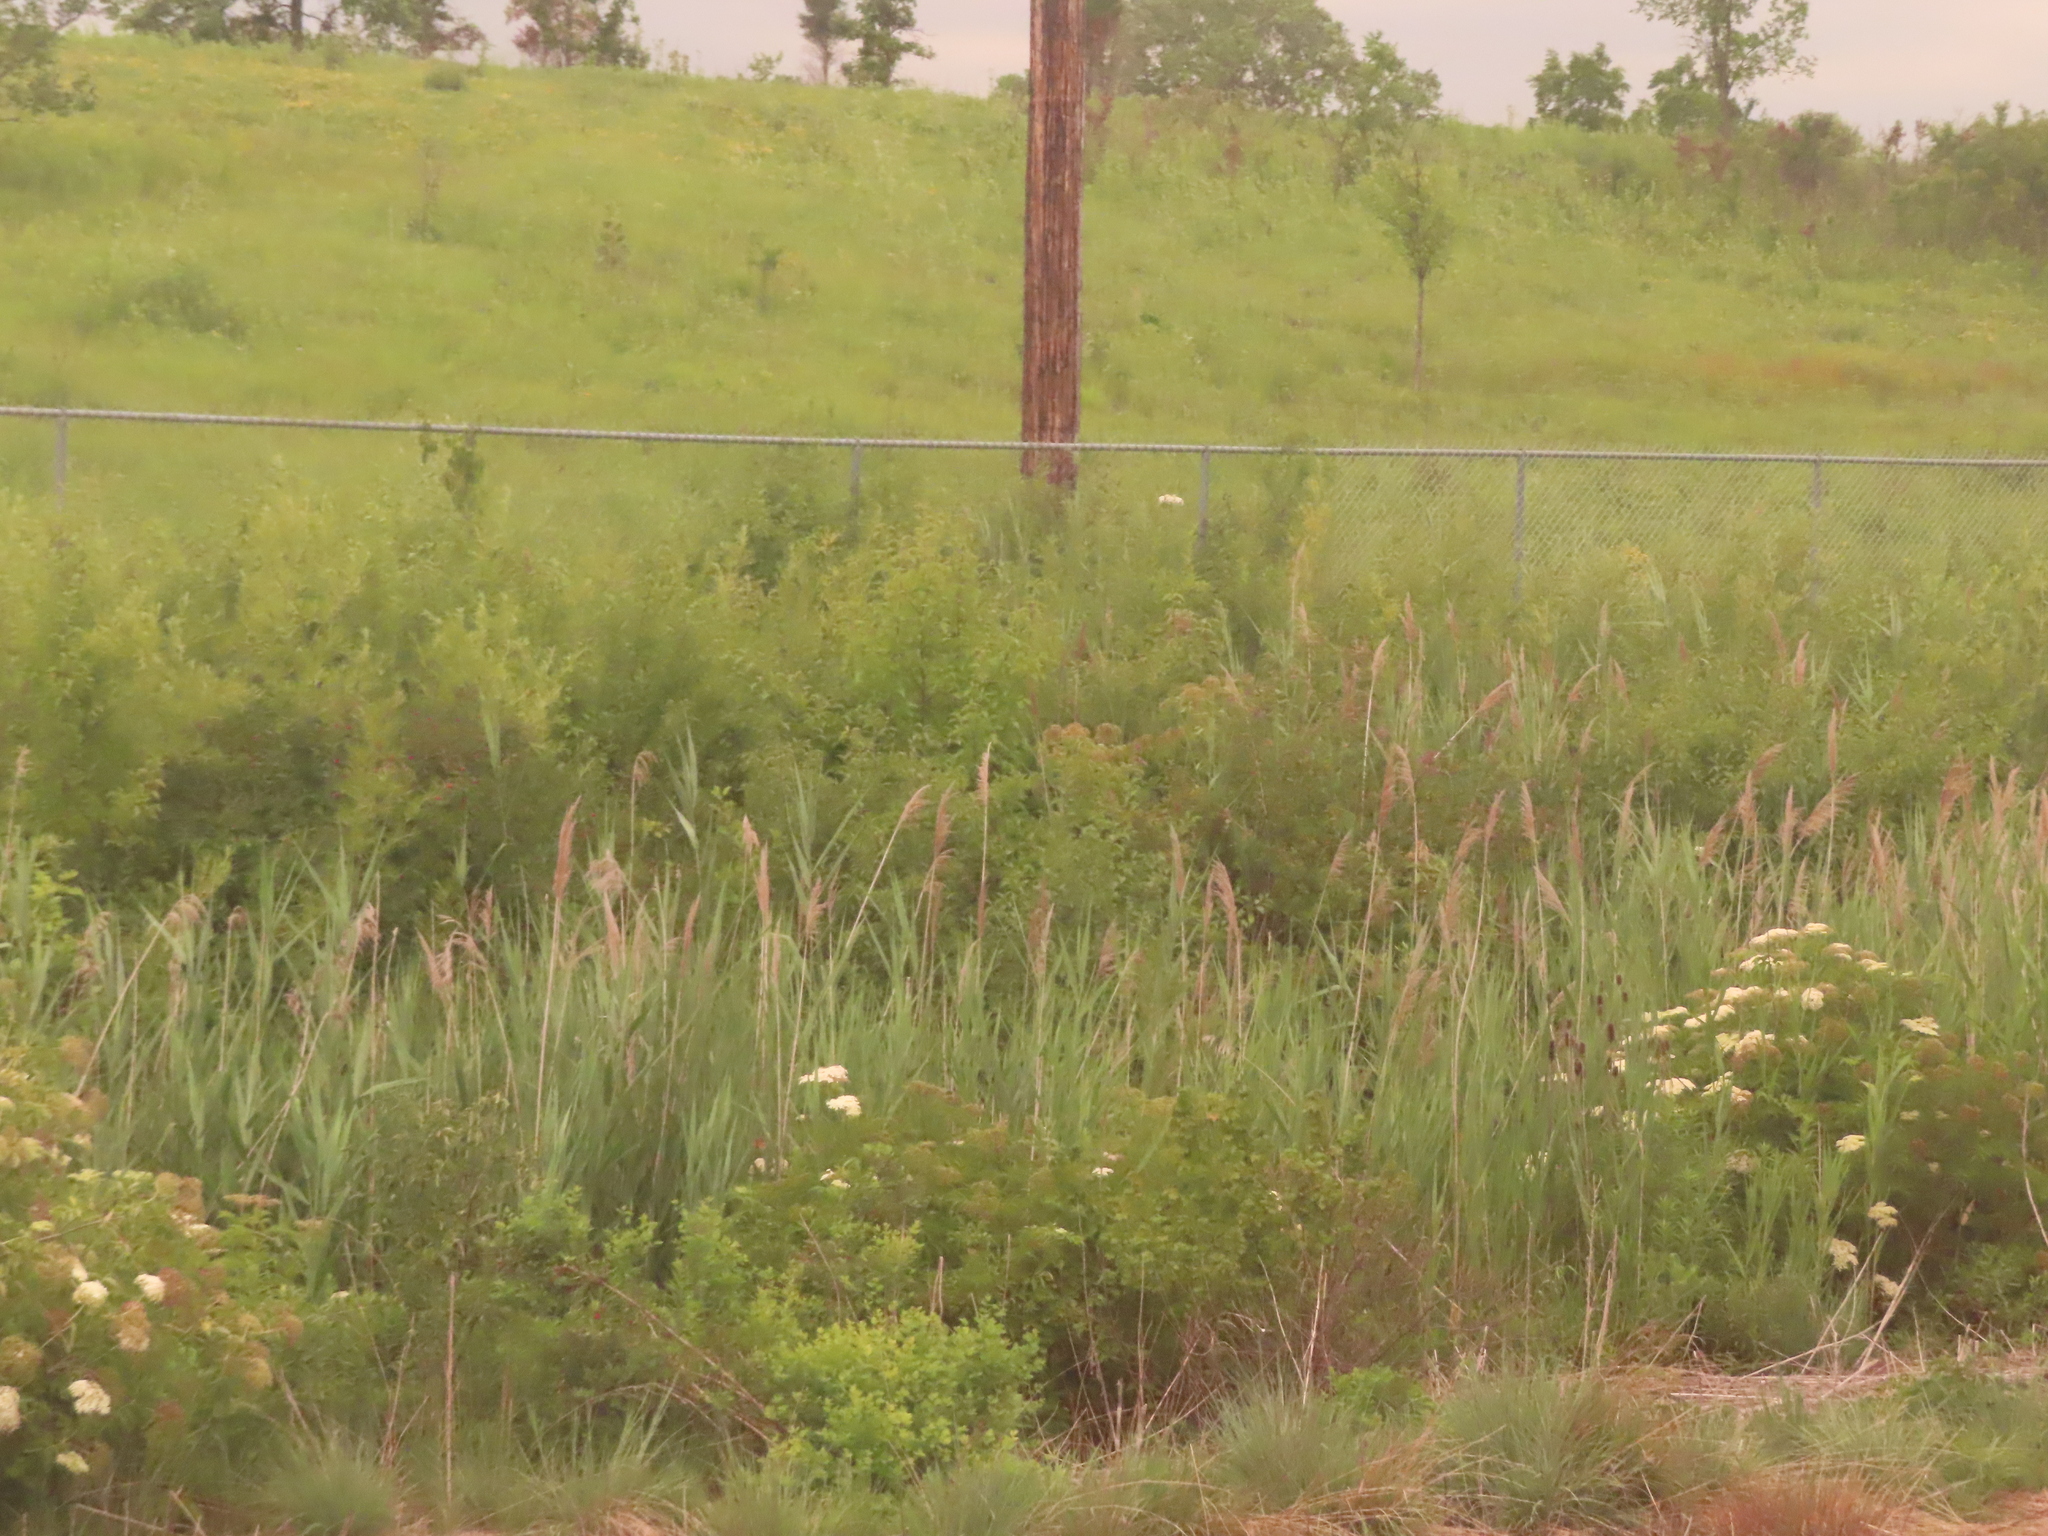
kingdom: Plantae
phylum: Tracheophyta
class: Liliopsida
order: Poales
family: Poaceae
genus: Phragmites
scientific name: Phragmites australis
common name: Common reed
